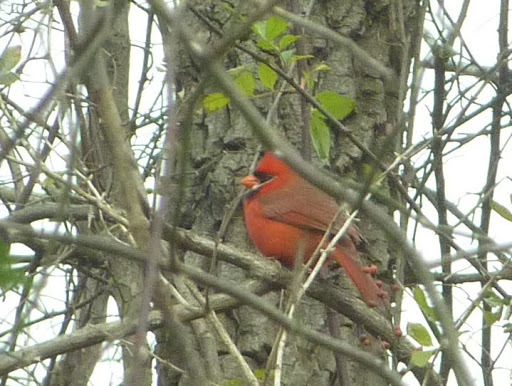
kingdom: Animalia
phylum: Chordata
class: Aves
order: Passeriformes
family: Cardinalidae
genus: Cardinalis
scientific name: Cardinalis cardinalis
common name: Northern cardinal
